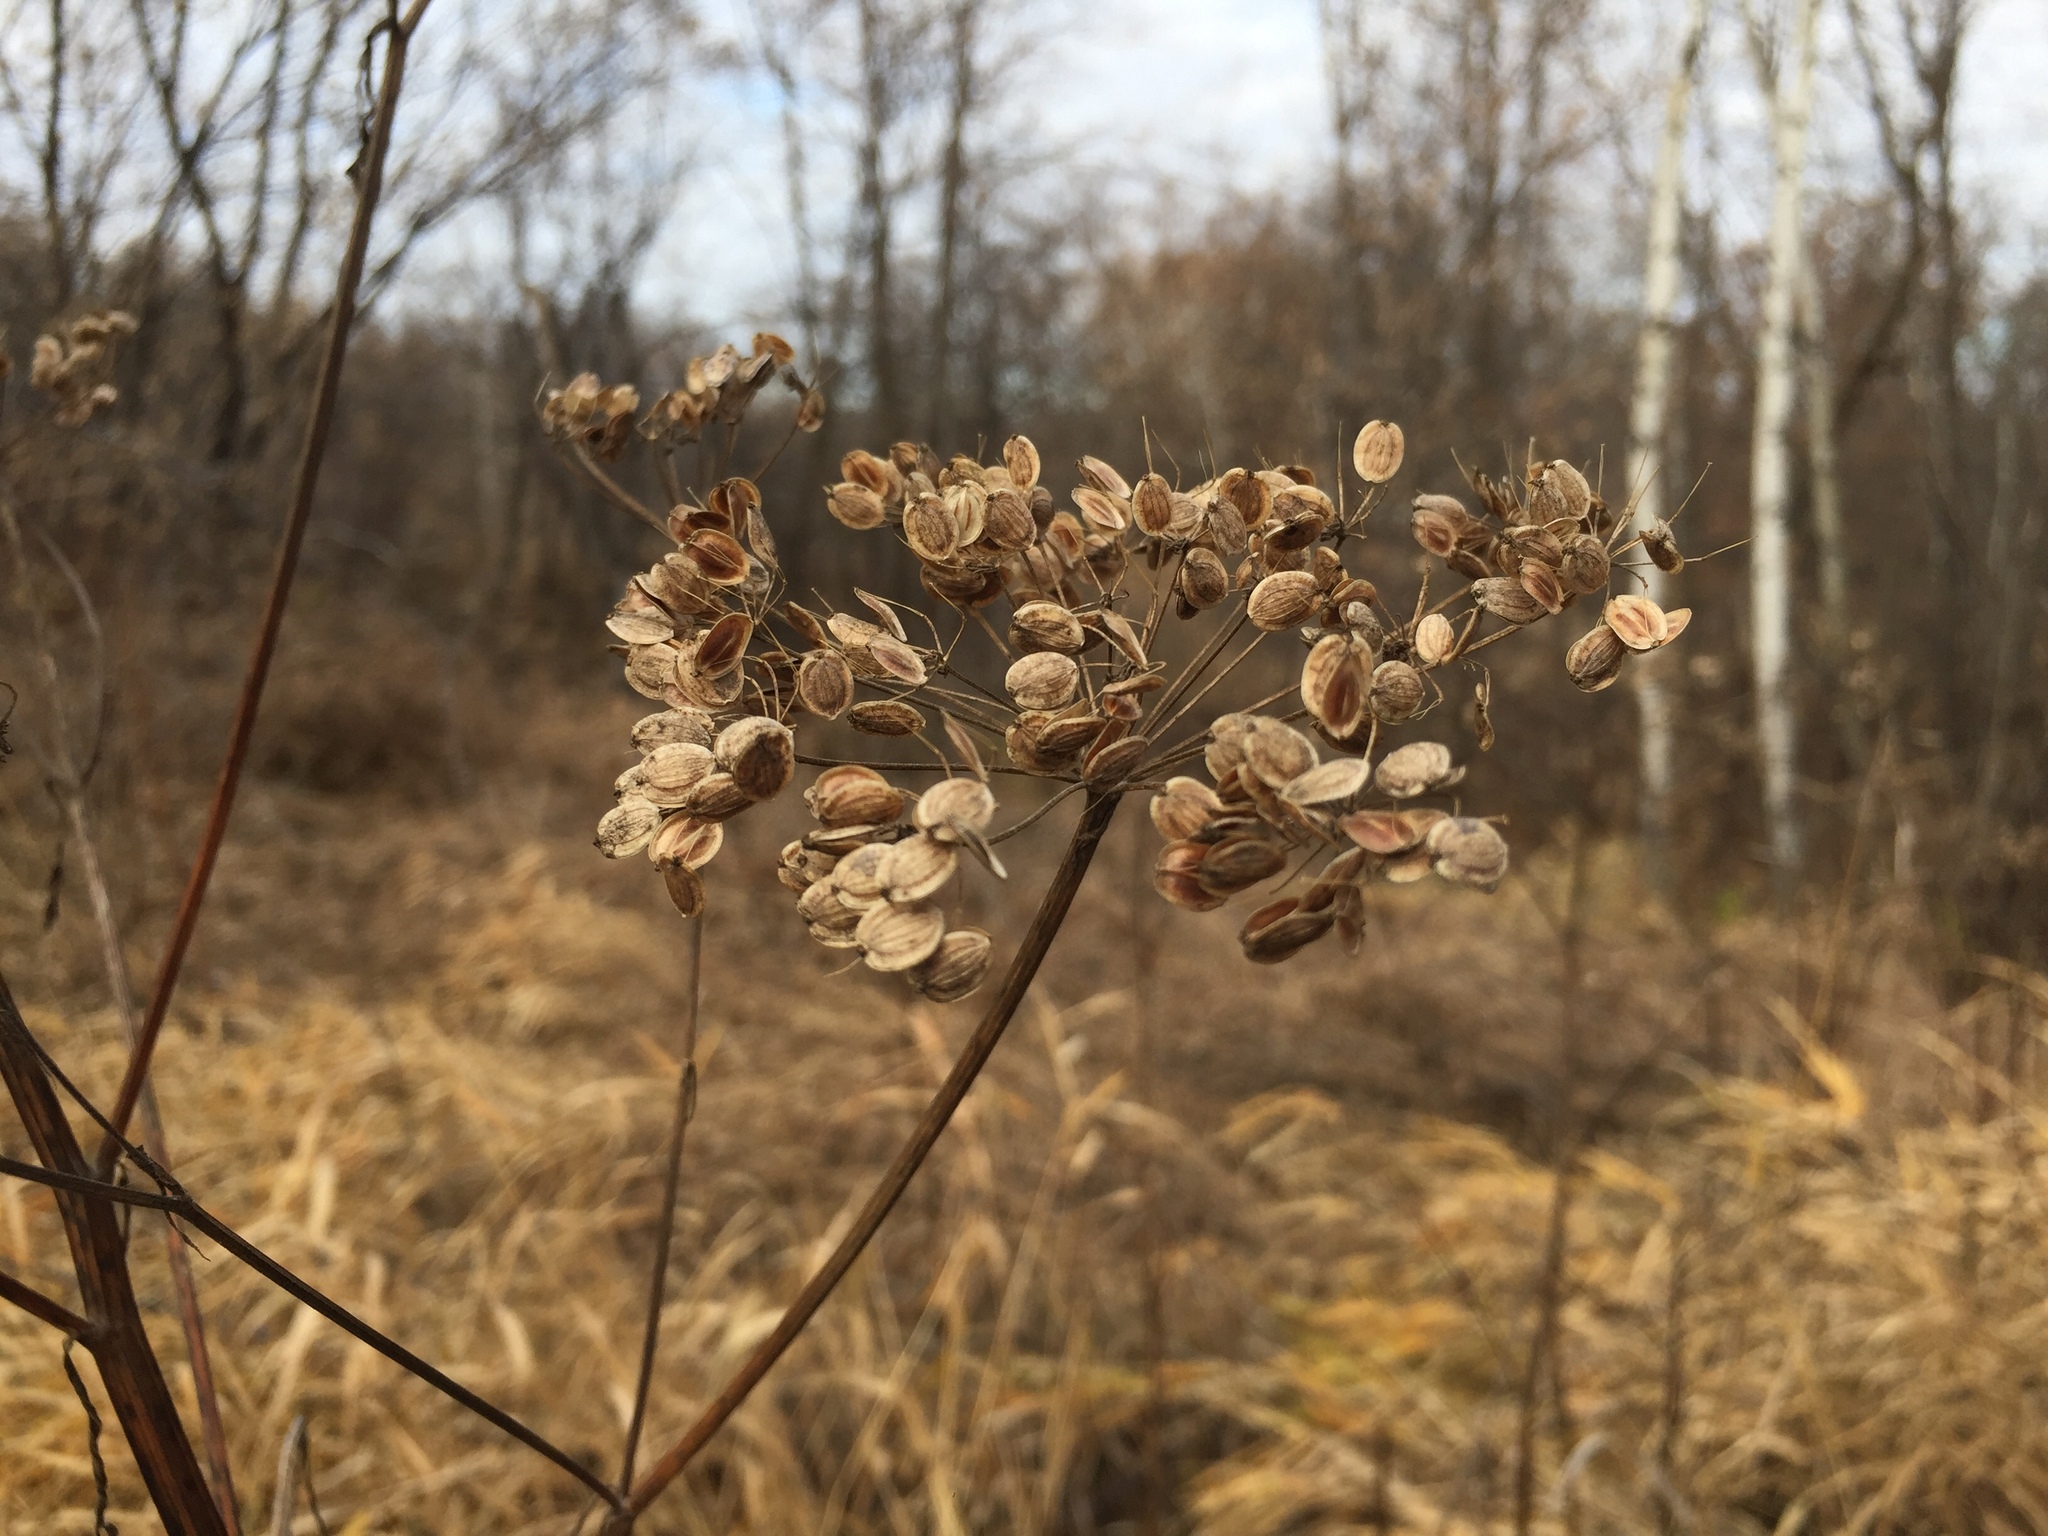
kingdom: Plantae
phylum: Tracheophyta
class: Magnoliopsida
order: Apiales
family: Apiaceae
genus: Pastinaca
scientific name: Pastinaca sativa
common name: Wild parsnip
